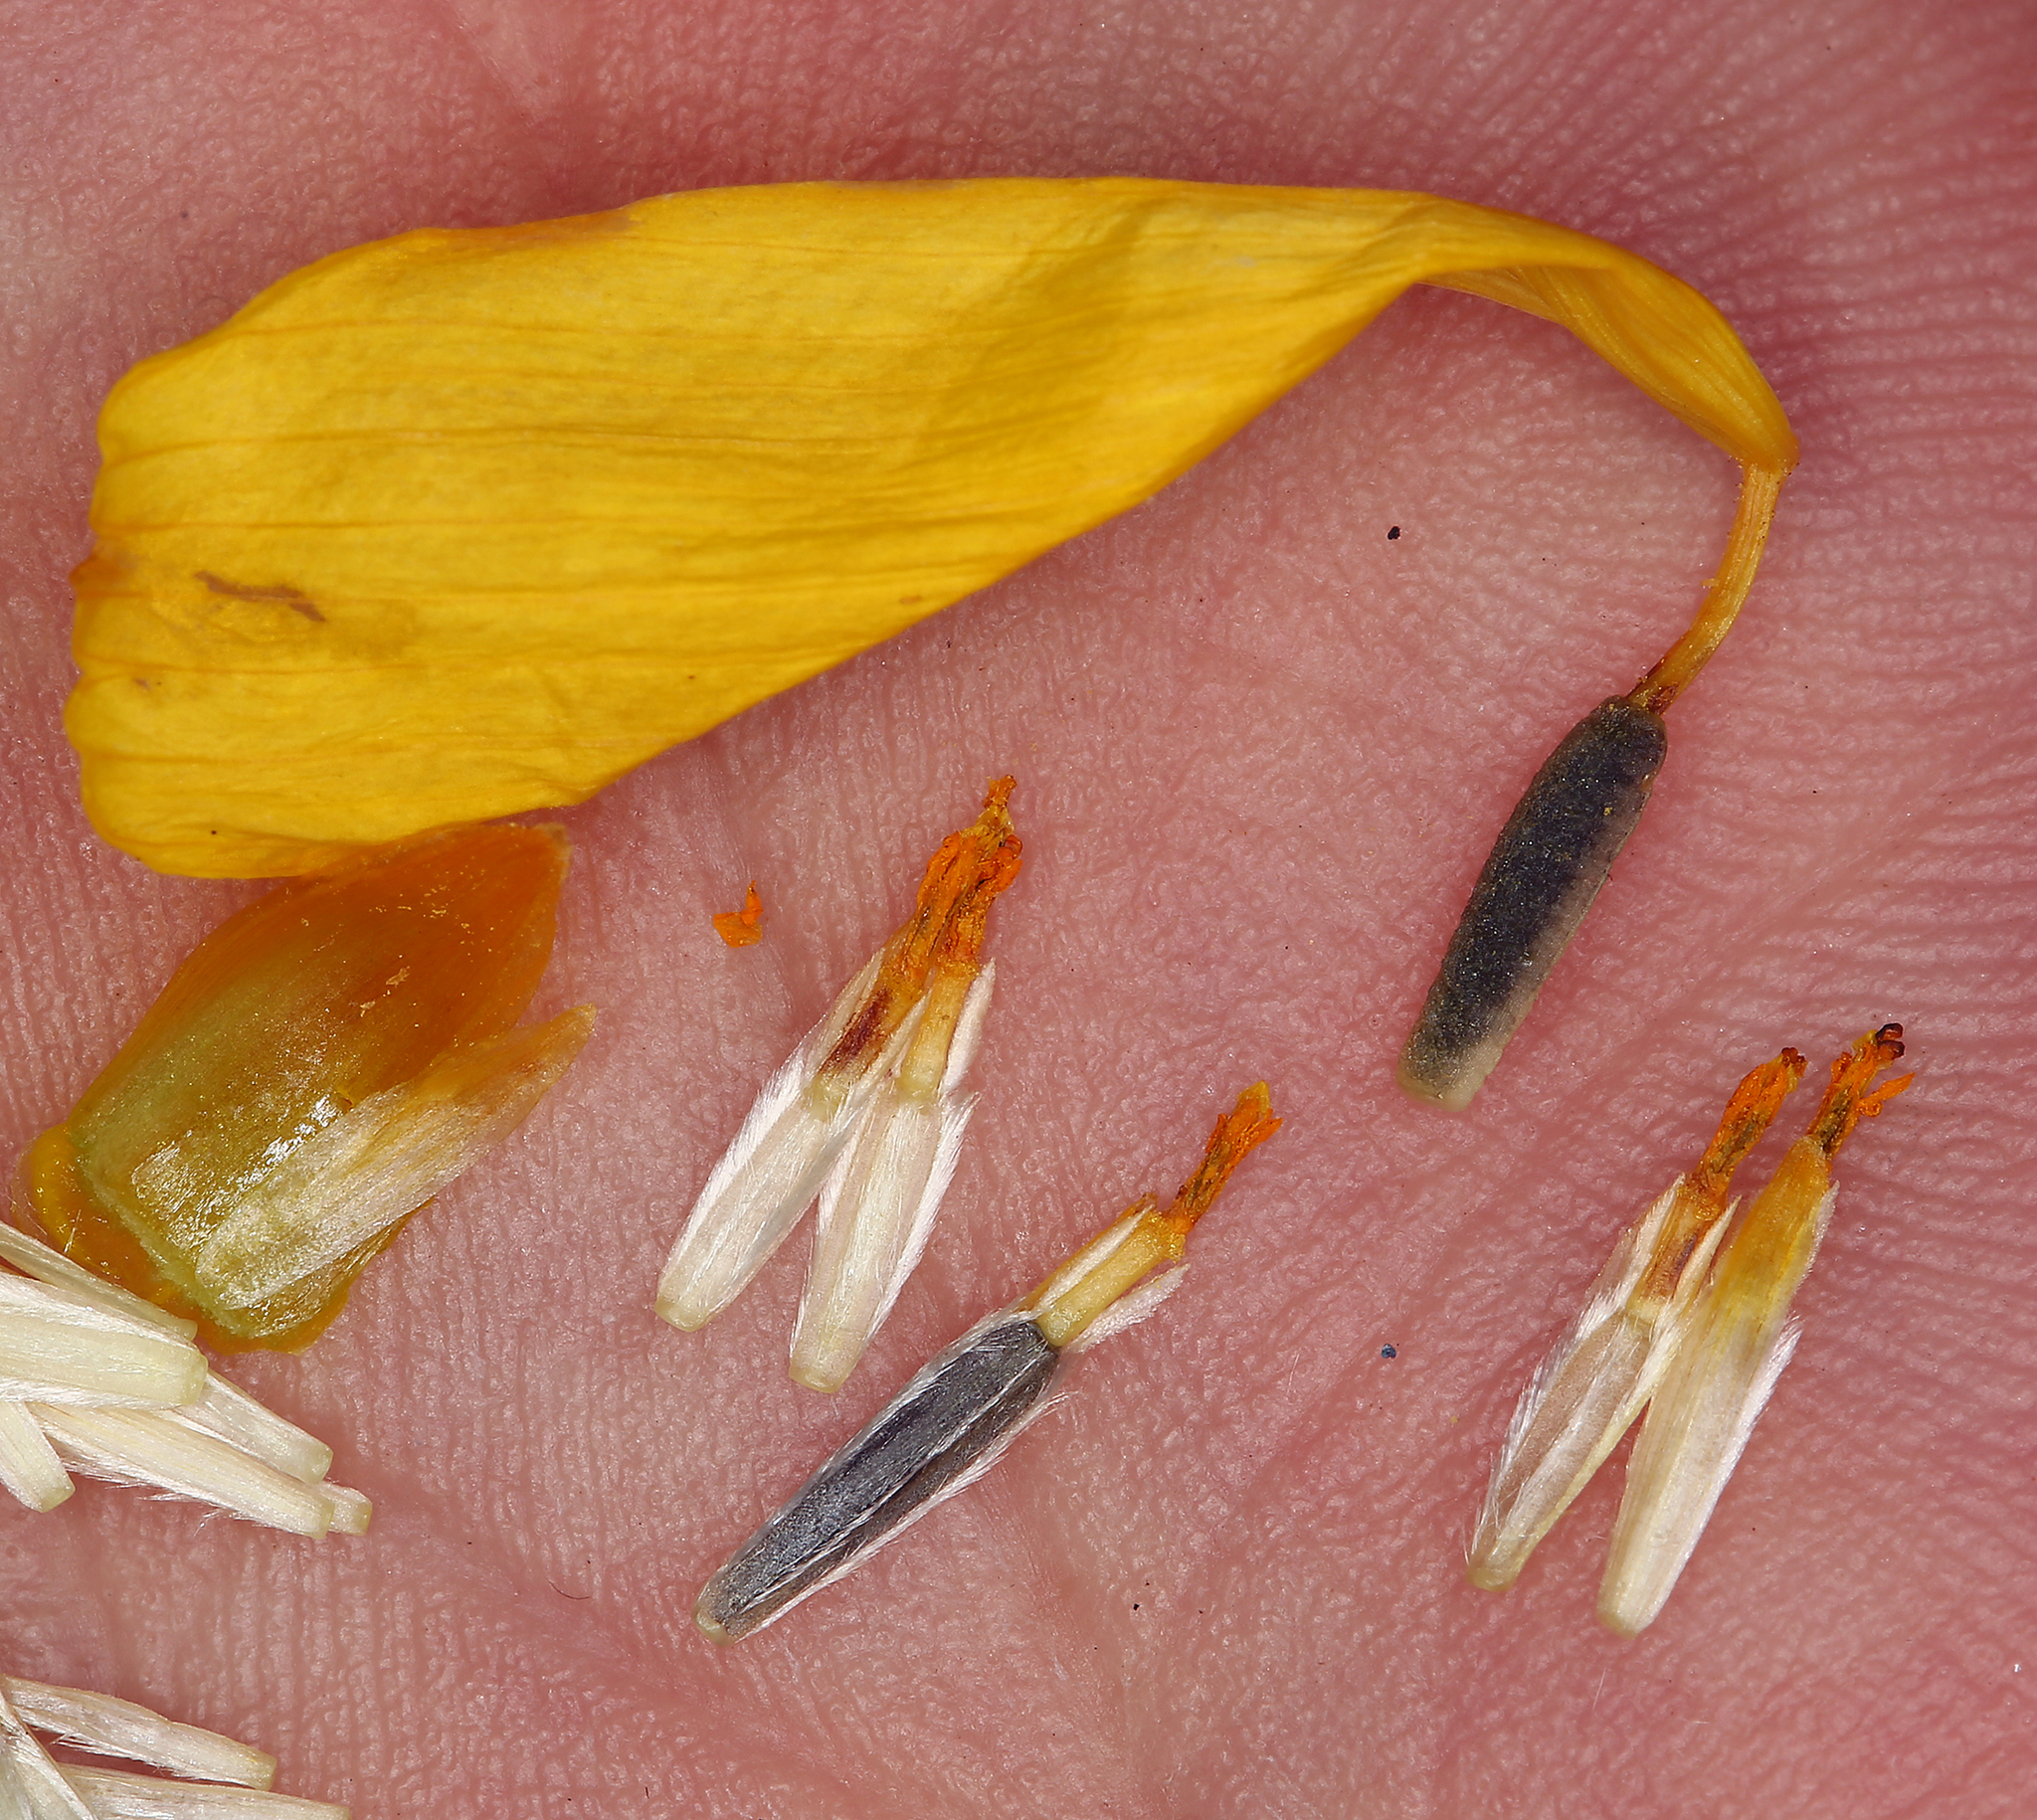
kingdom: Plantae
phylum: Tracheophyta
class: Magnoliopsida
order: Asterales
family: Asteraceae
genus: Coreopsis
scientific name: Coreopsis bigelovii
